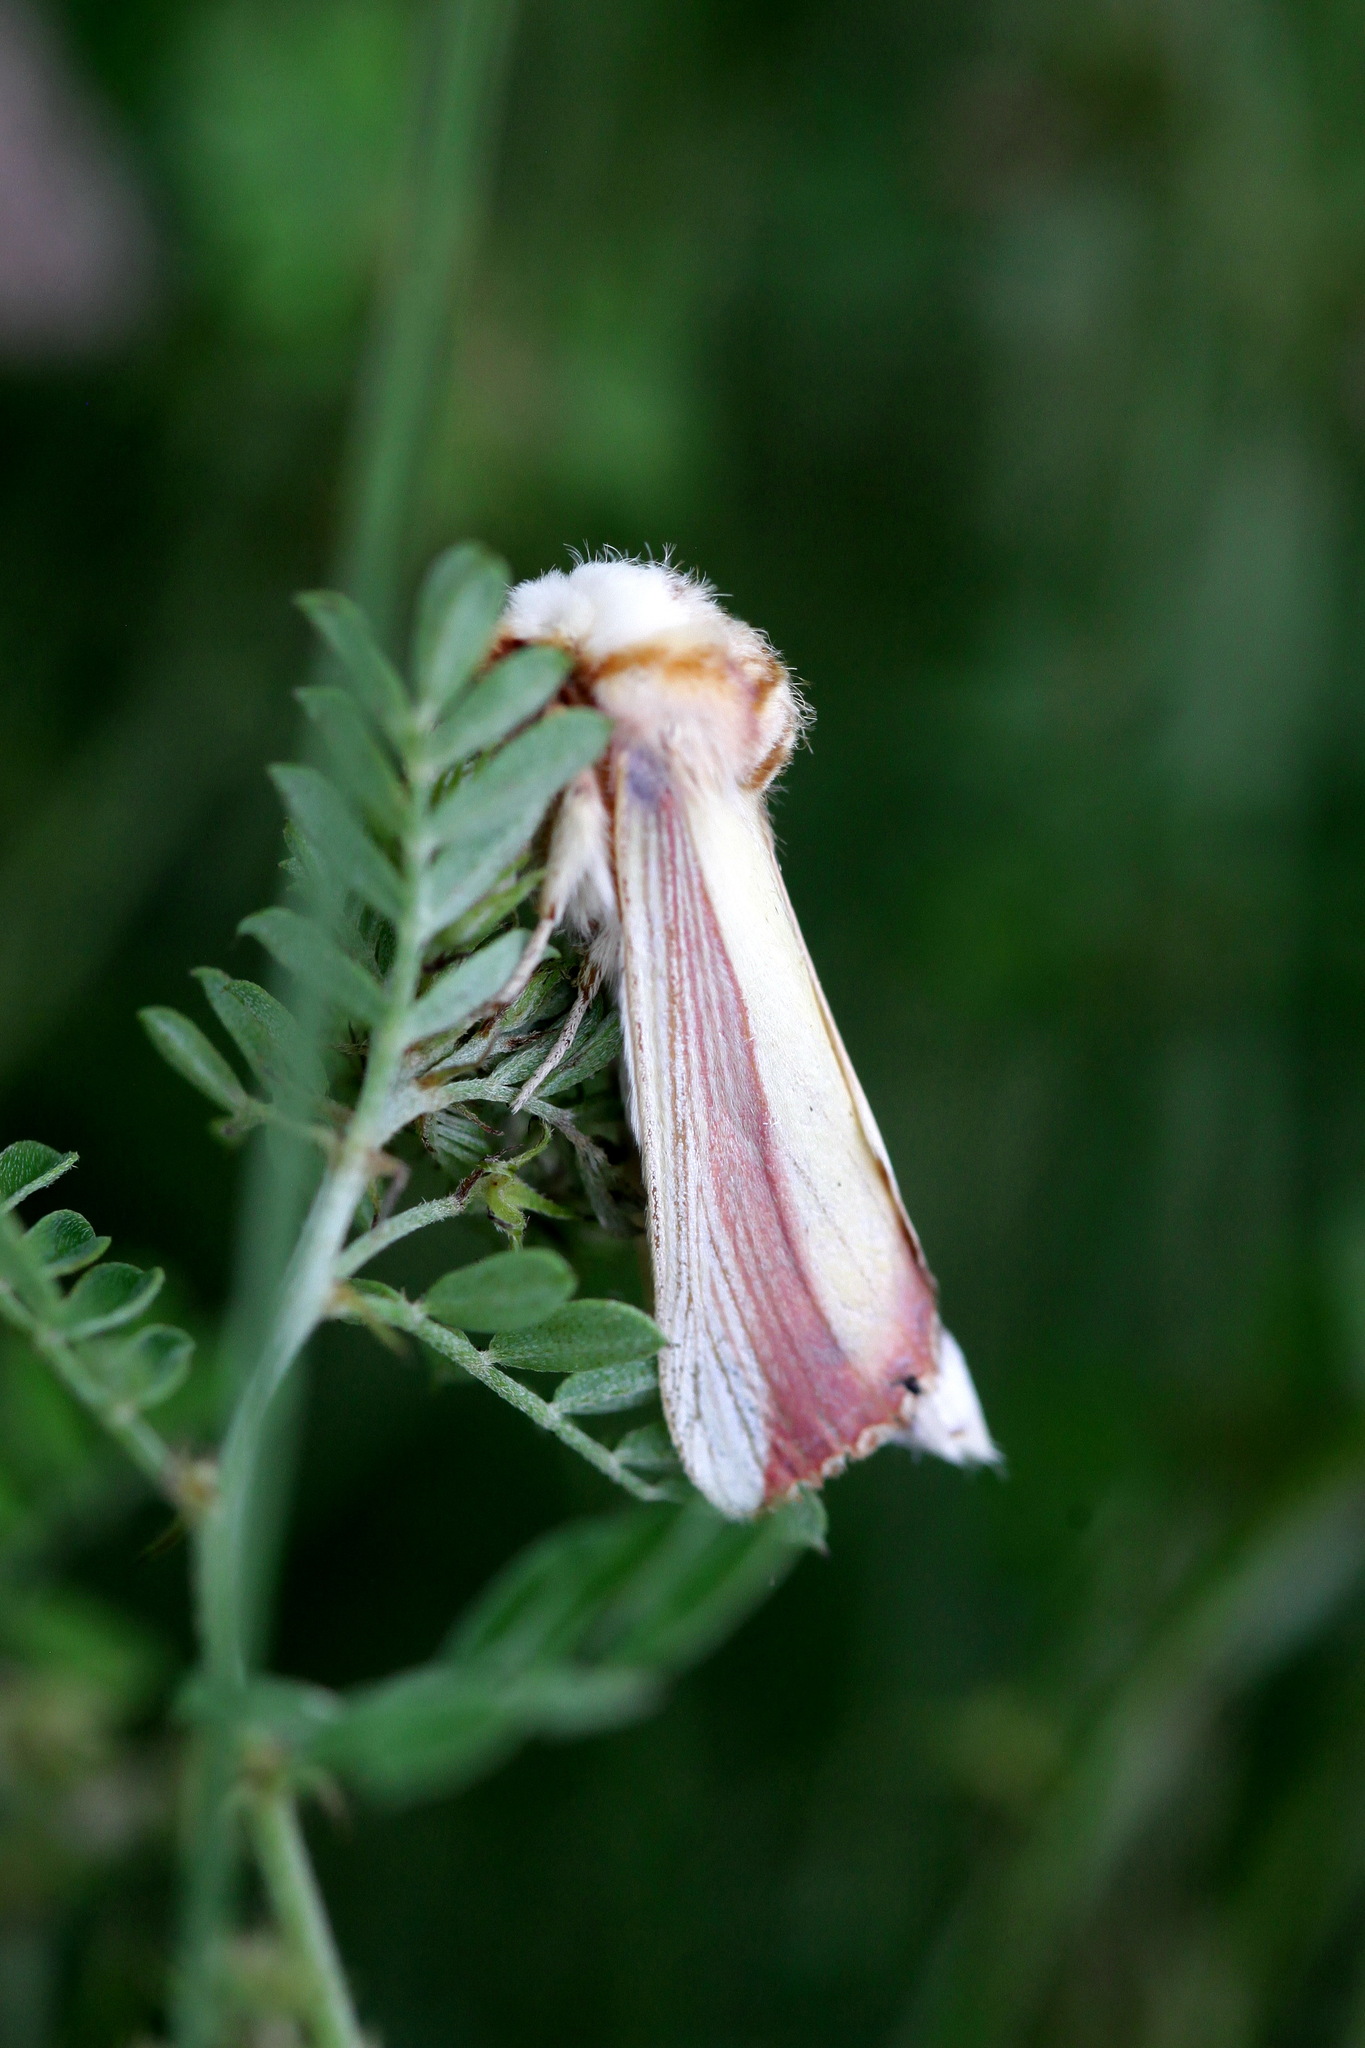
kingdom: Animalia
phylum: Arthropoda
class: Insecta
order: Lepidoptera
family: Notodontidae
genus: Antheua
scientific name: Antheua Rigema ornata
